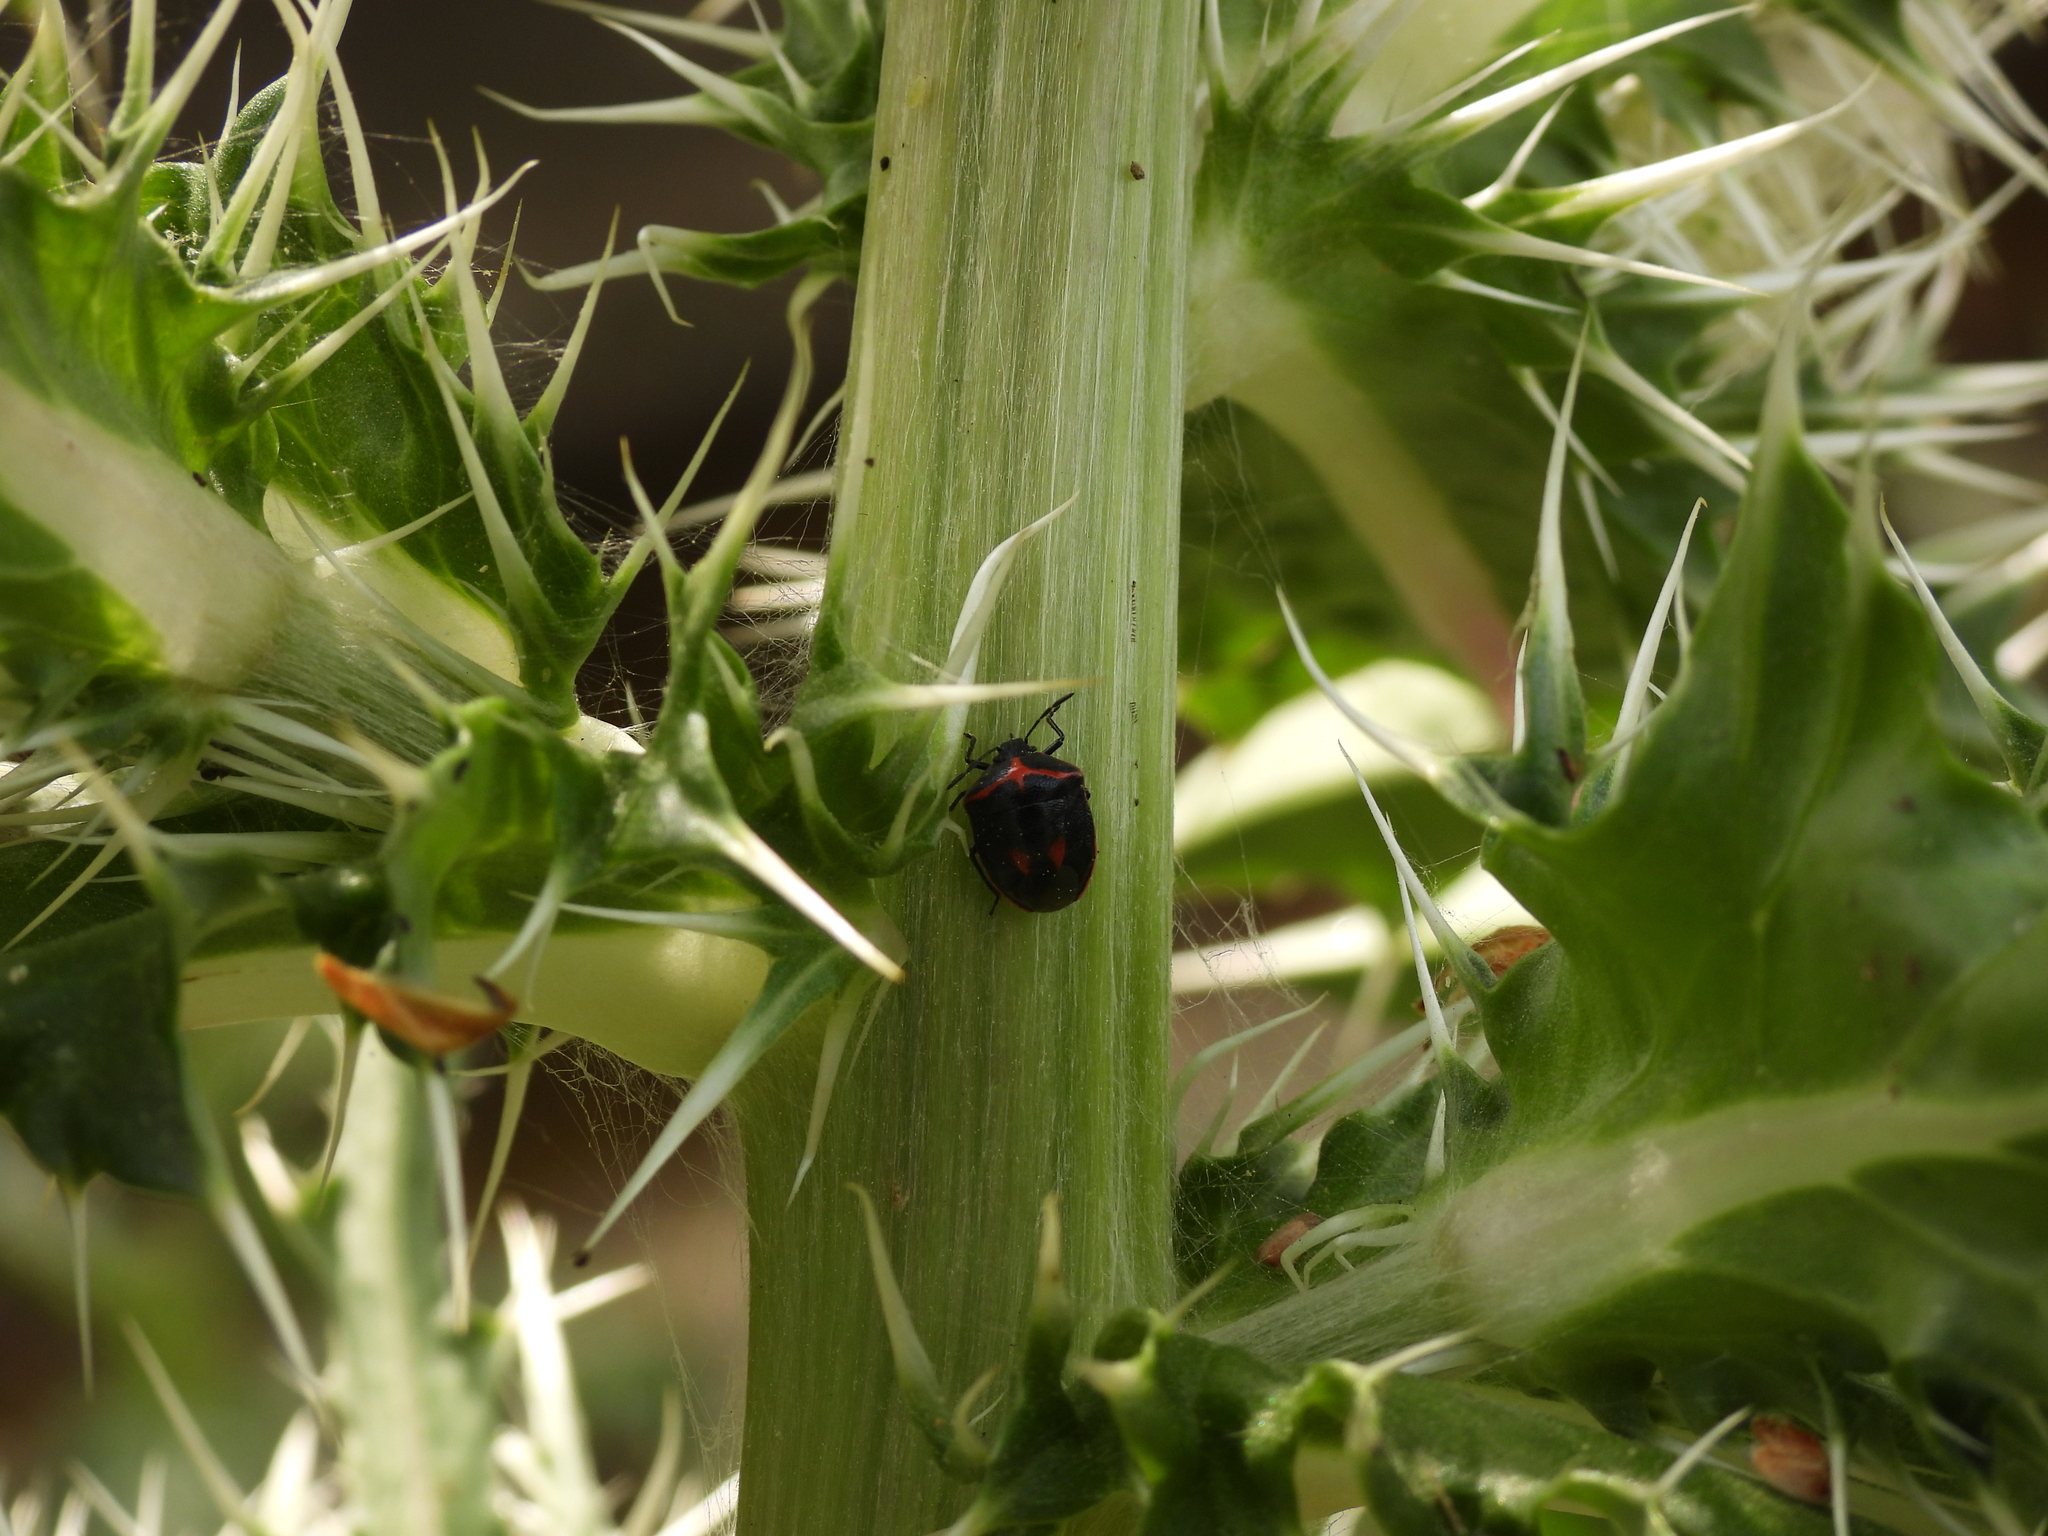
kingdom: Animalia
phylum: Arthropoda
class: Insecta
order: Hemiptera
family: Pentatomidae
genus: Cosmopepla
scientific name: Cosmopepla lintneriana
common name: Twice-stabbed stink bug
